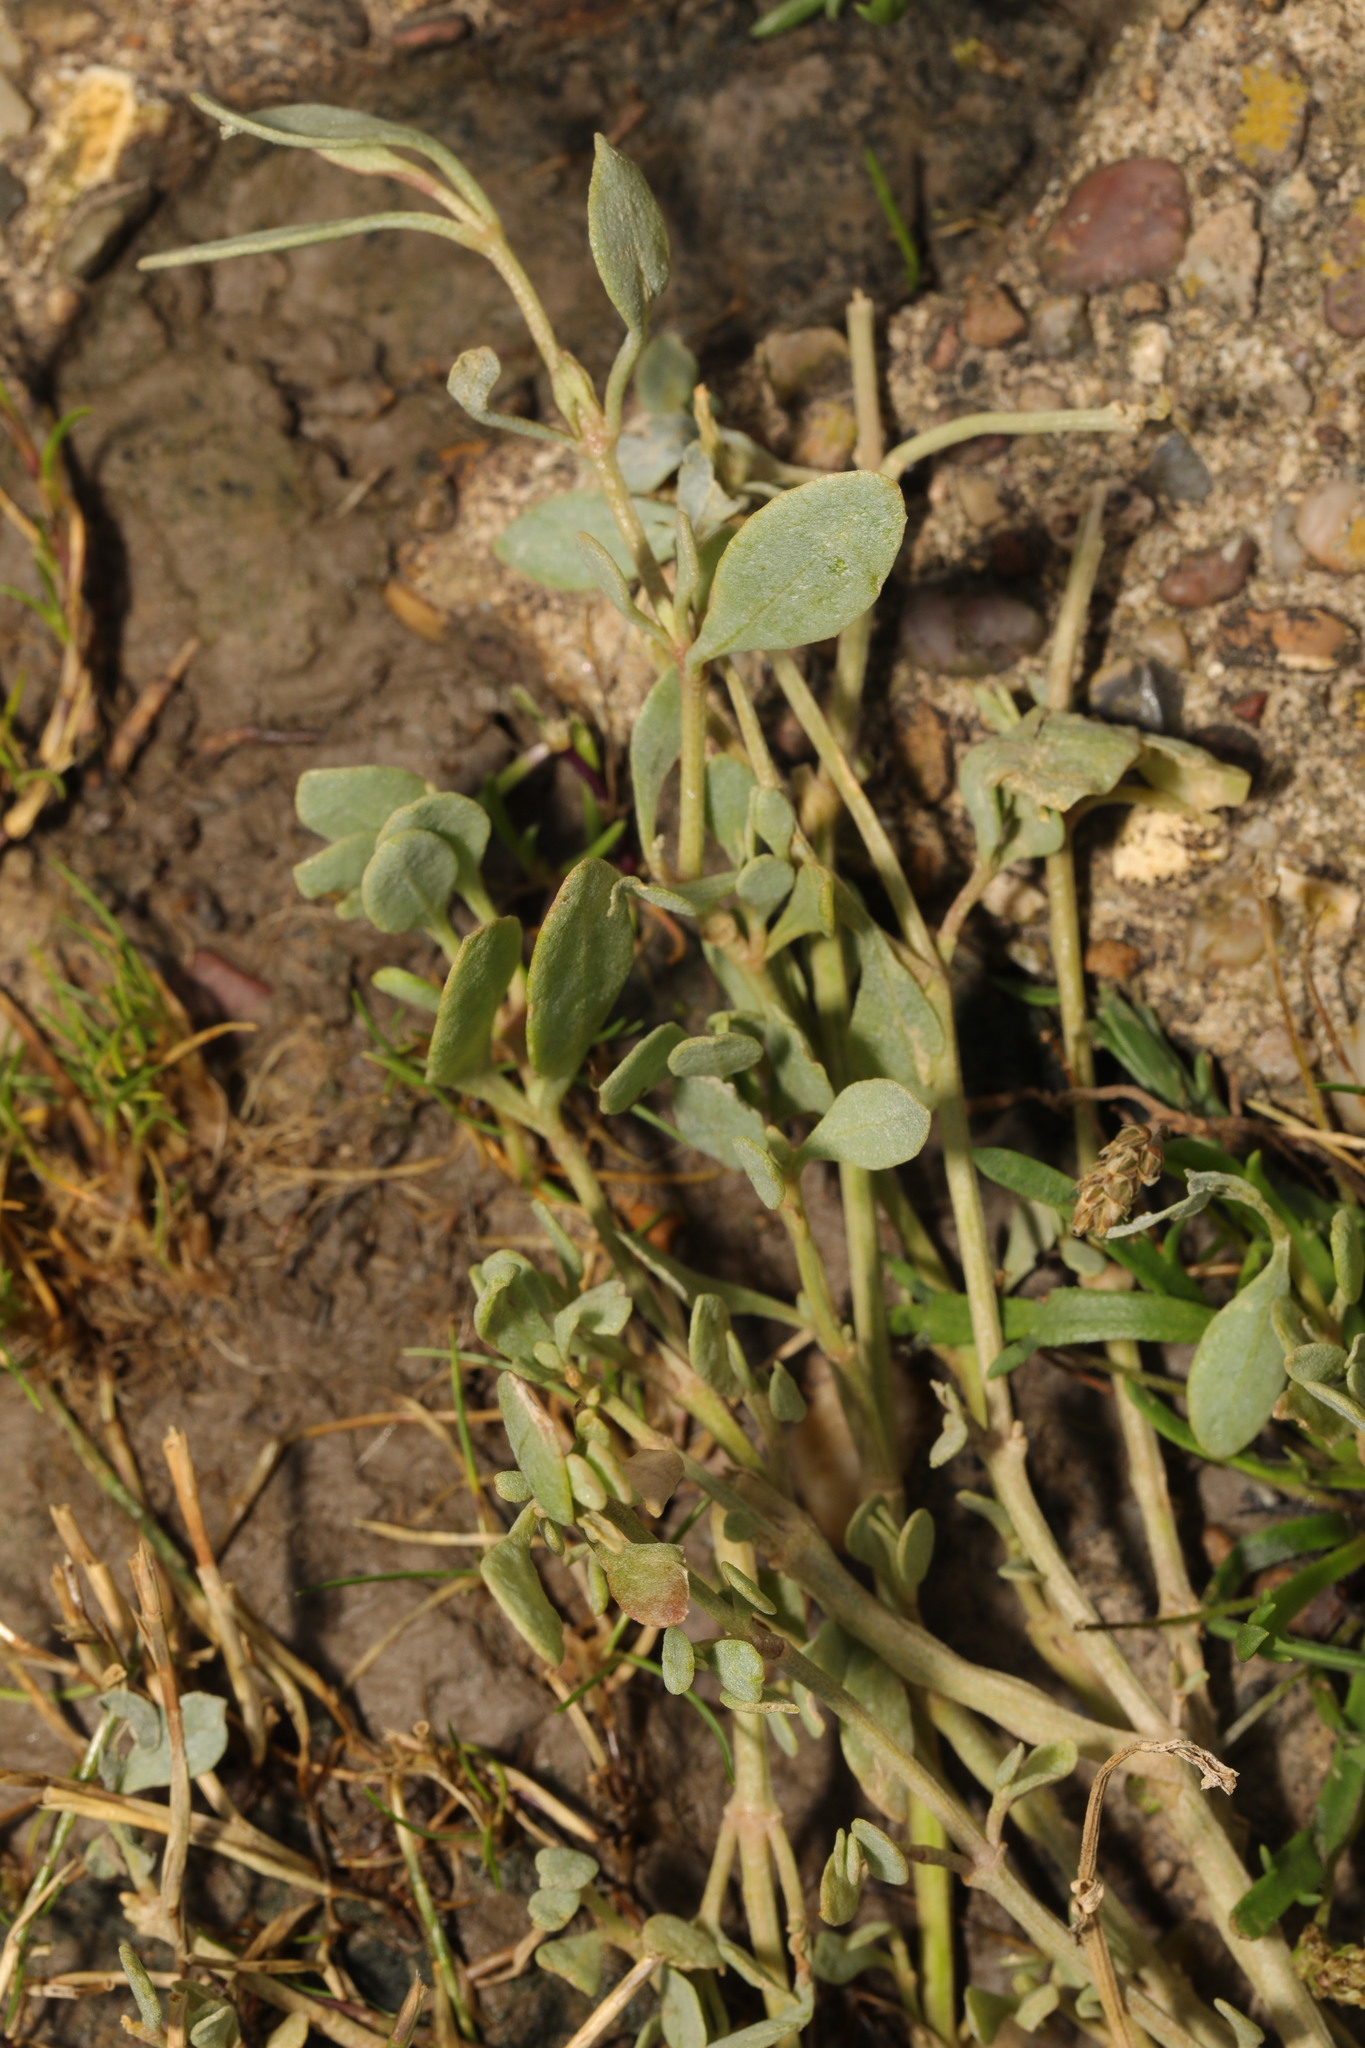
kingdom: Plantae
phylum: Tracheophyta
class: Magnoliopsida
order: Caryophyllales
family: Amaranthaceae
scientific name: Amaranthaceae
